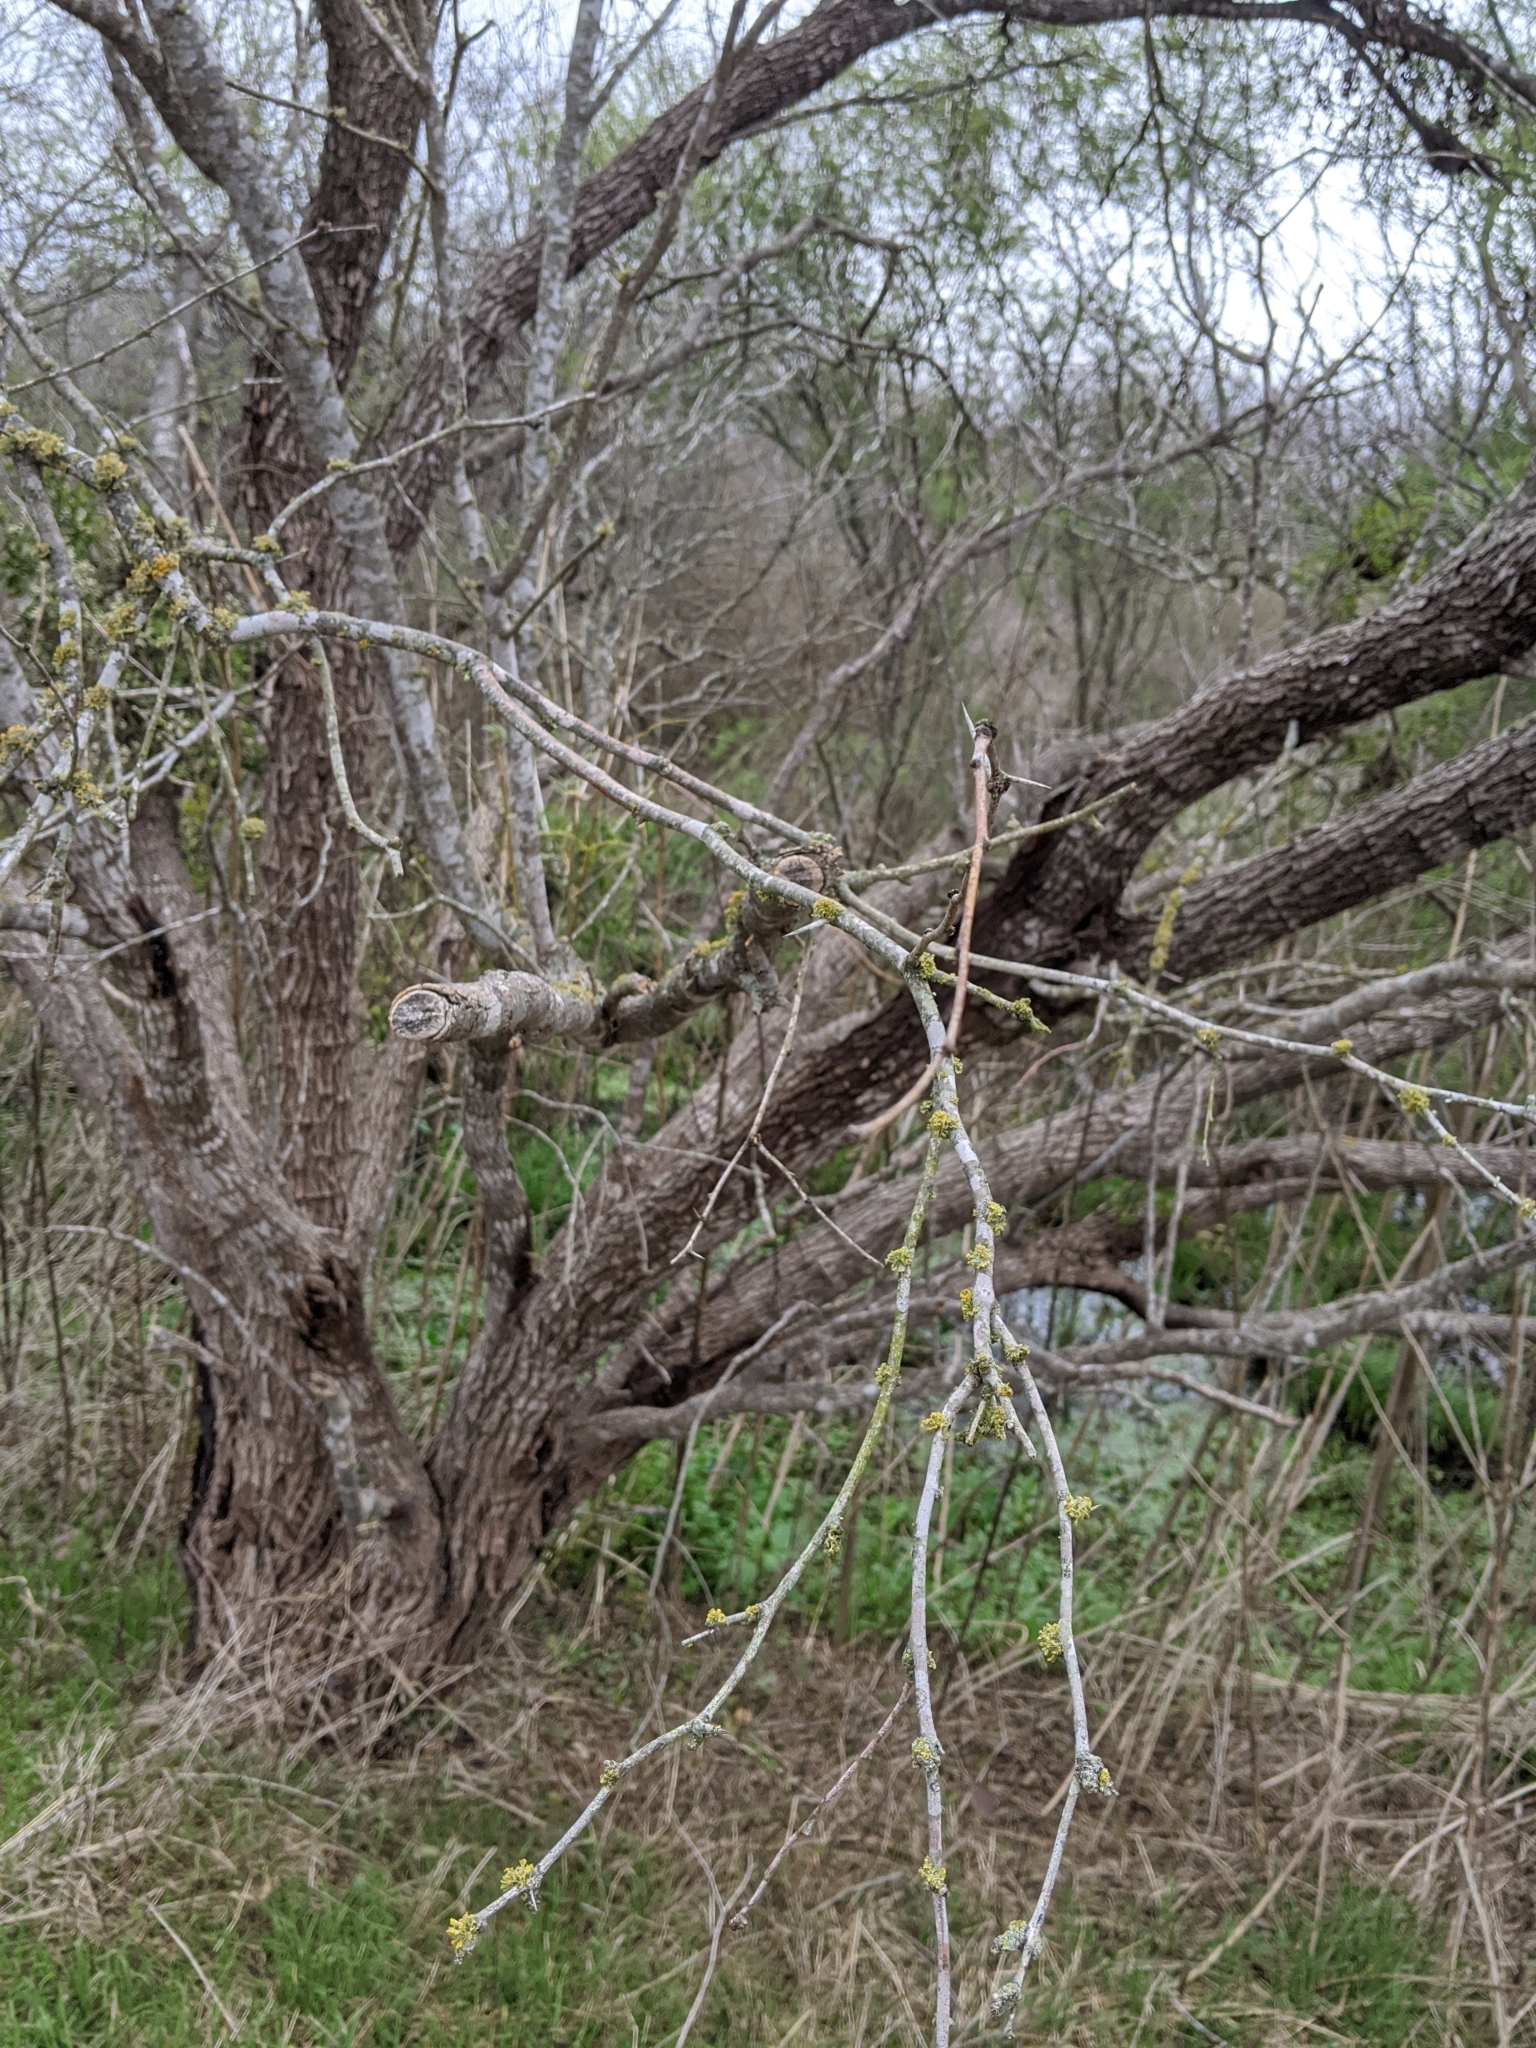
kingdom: Plantae
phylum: Tracheophyta
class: Magnoliopsida
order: Santalales
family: Viscaceae
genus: Phoradendron
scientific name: Phoradendron leucarpum
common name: Pacific mistletoe
